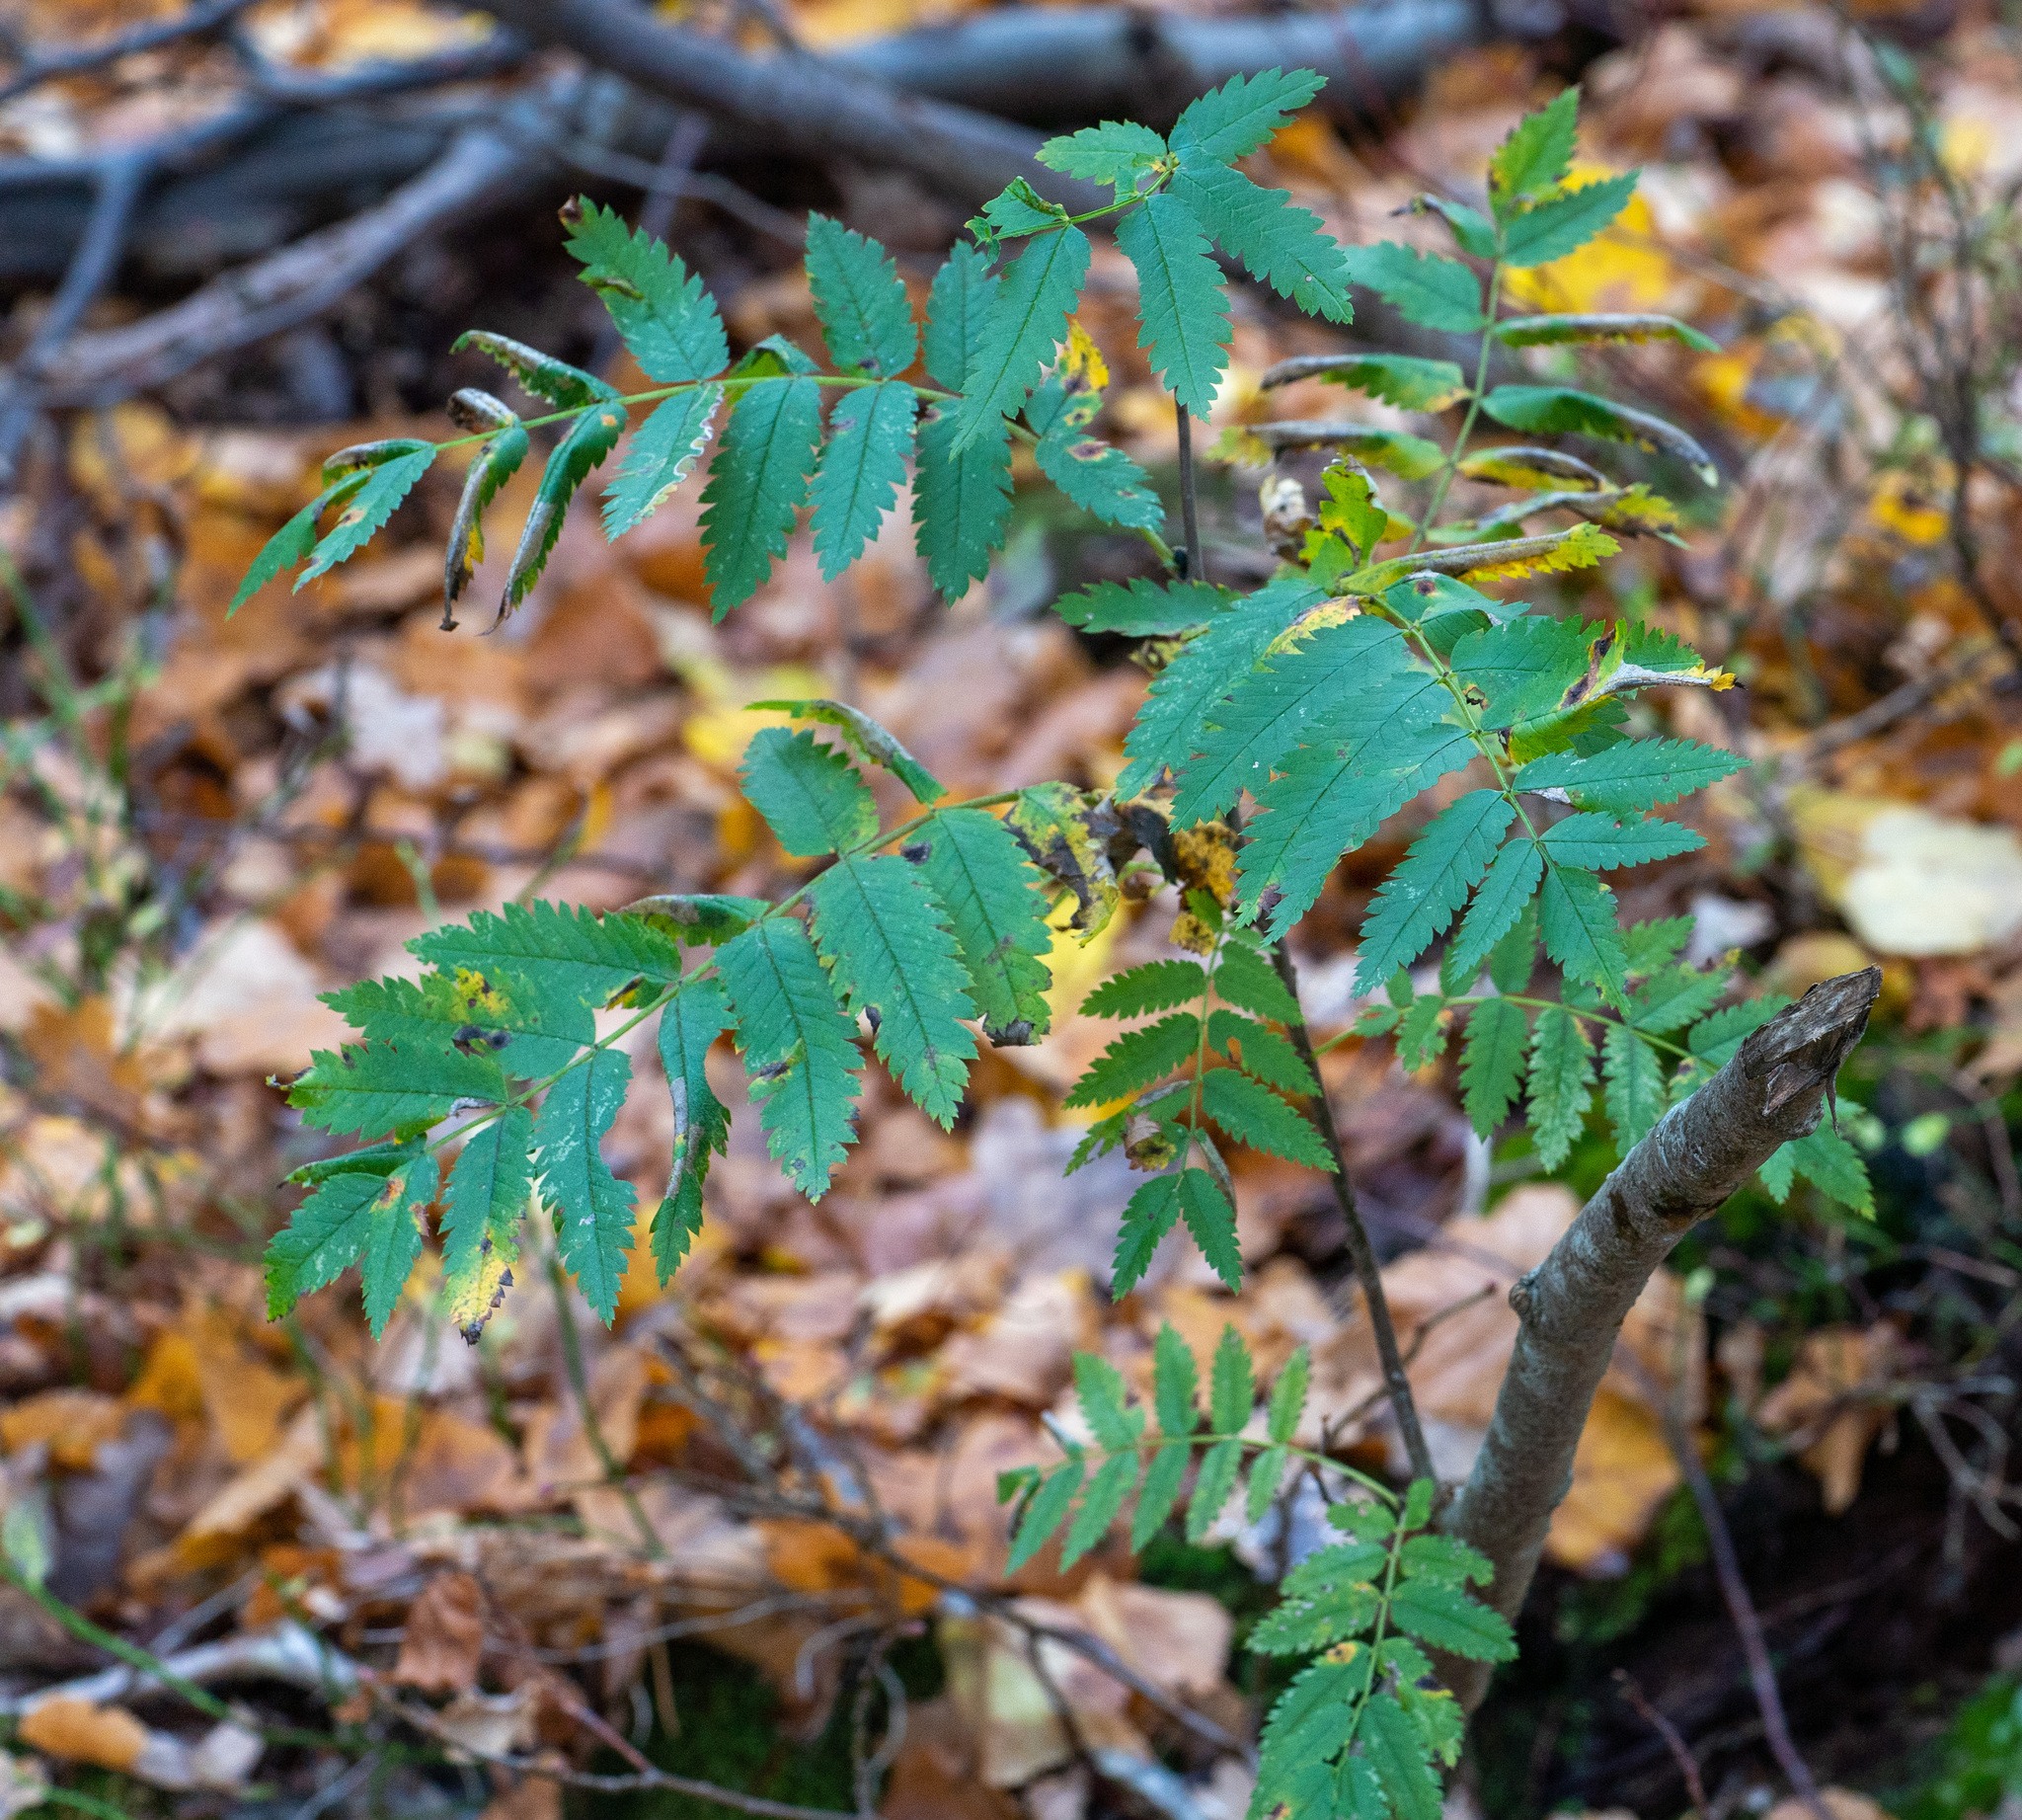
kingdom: Plantae
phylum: Tracheophyta
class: Magnoliopsida
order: Rosales
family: Rosaceae
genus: Sorbus
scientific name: Sorbus aucuparia
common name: Rowan
